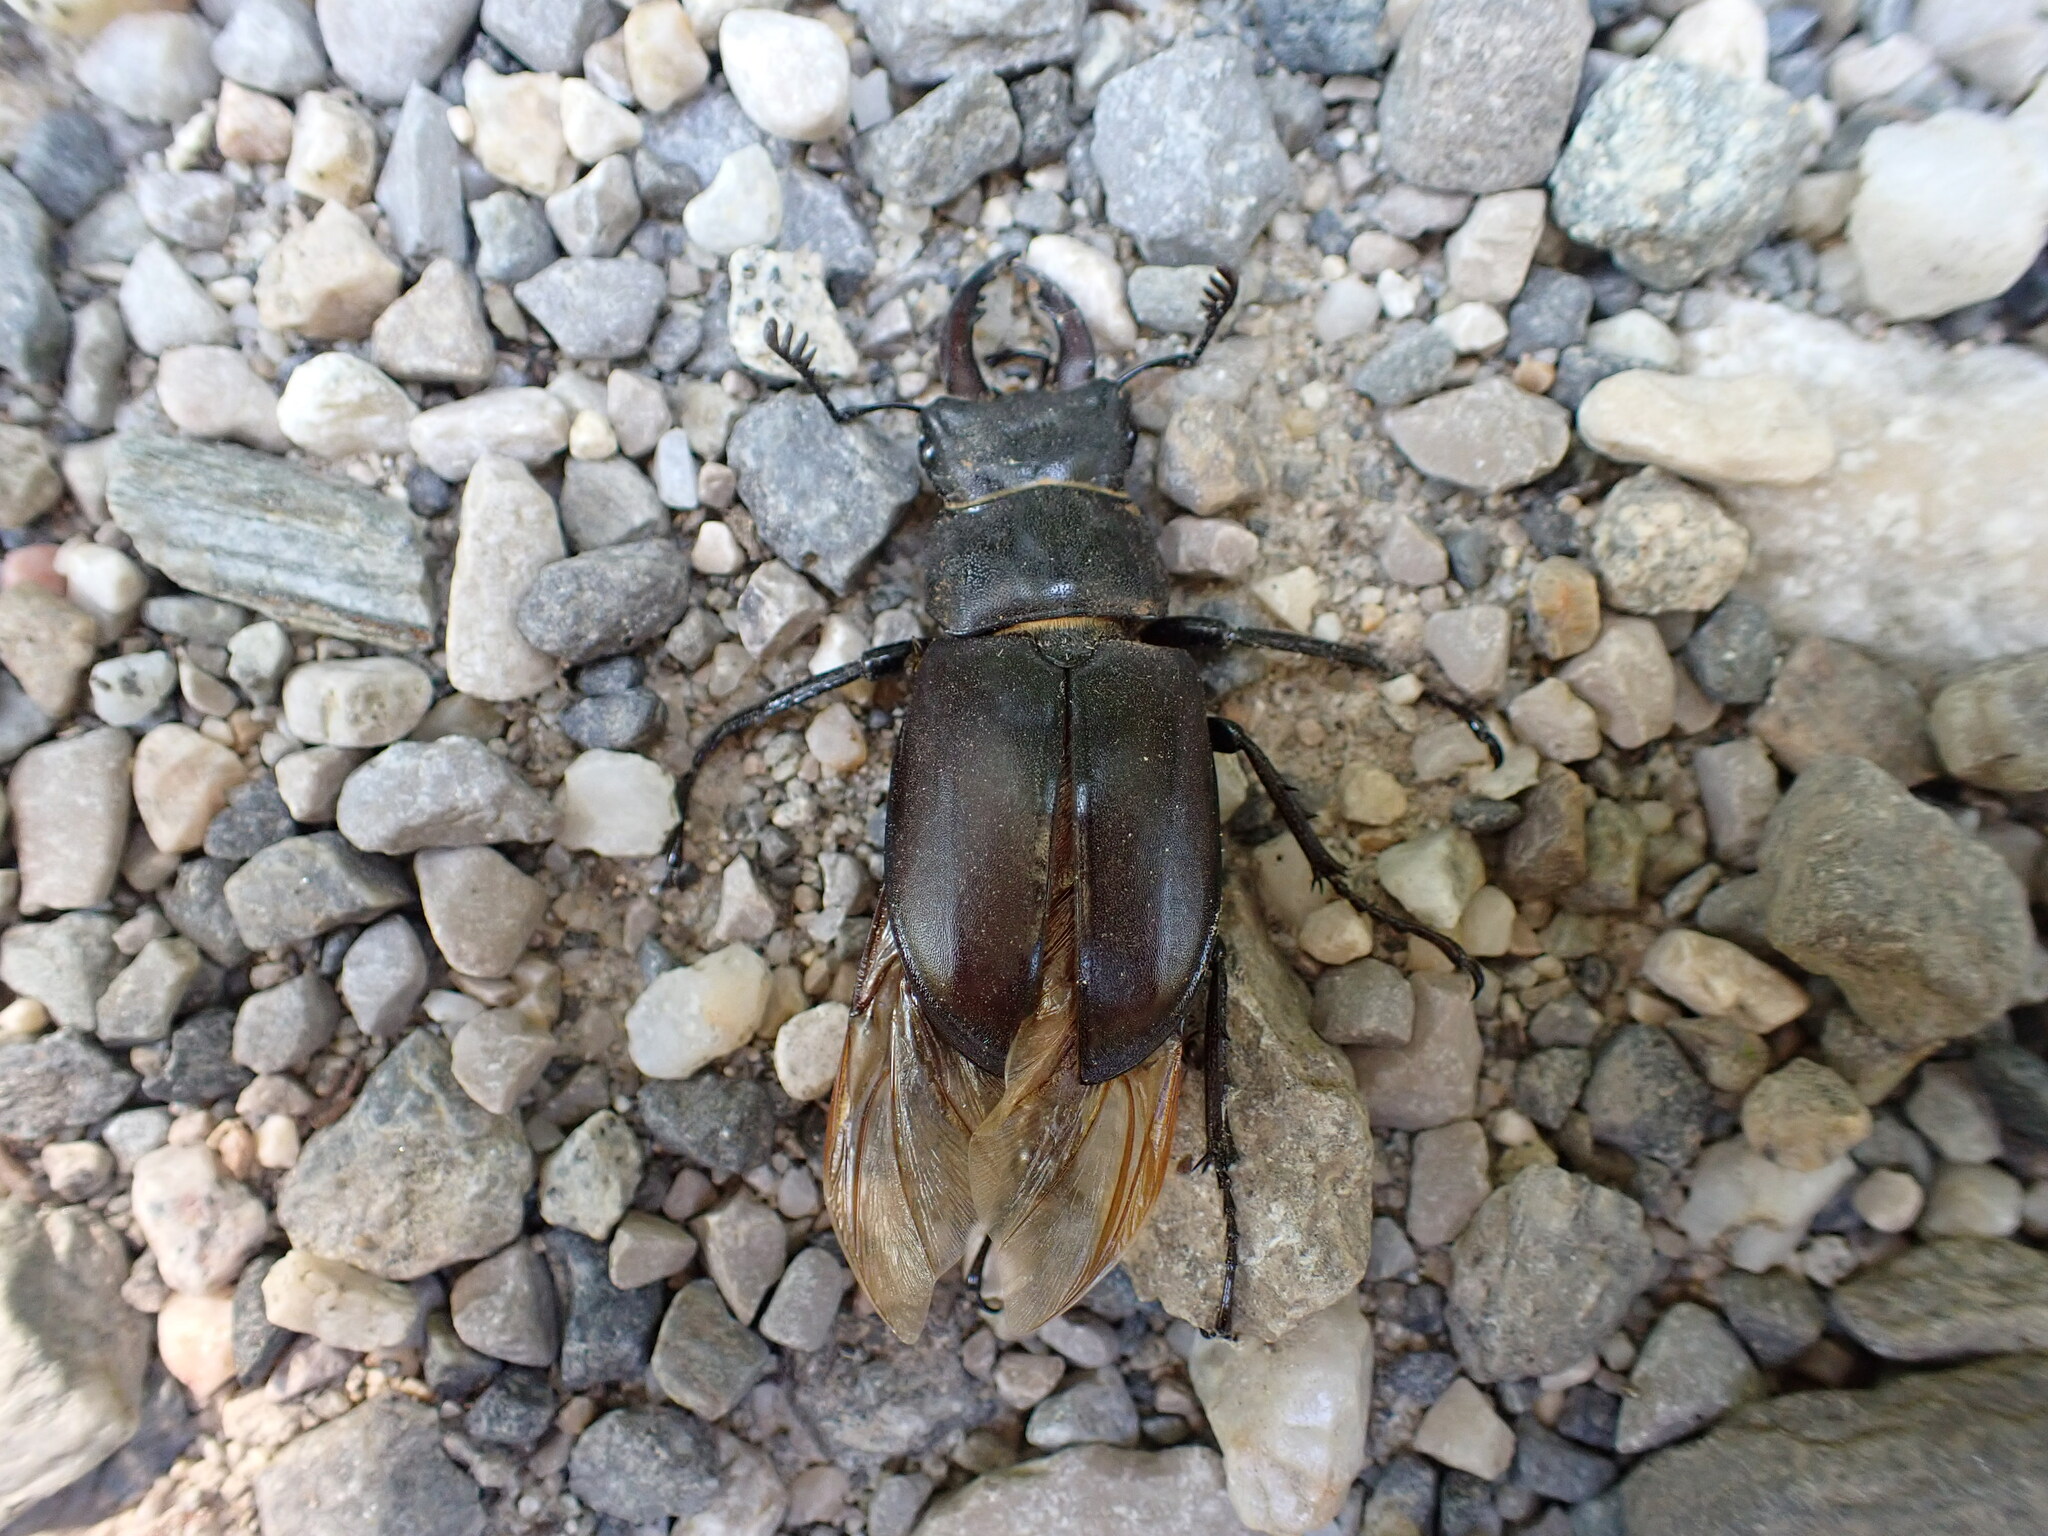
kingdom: Animalia
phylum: Arthropoda
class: Insecta
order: Coleoptera
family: Lucanidae
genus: Lucanus
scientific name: Lucanus cervus
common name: Stag beetle
